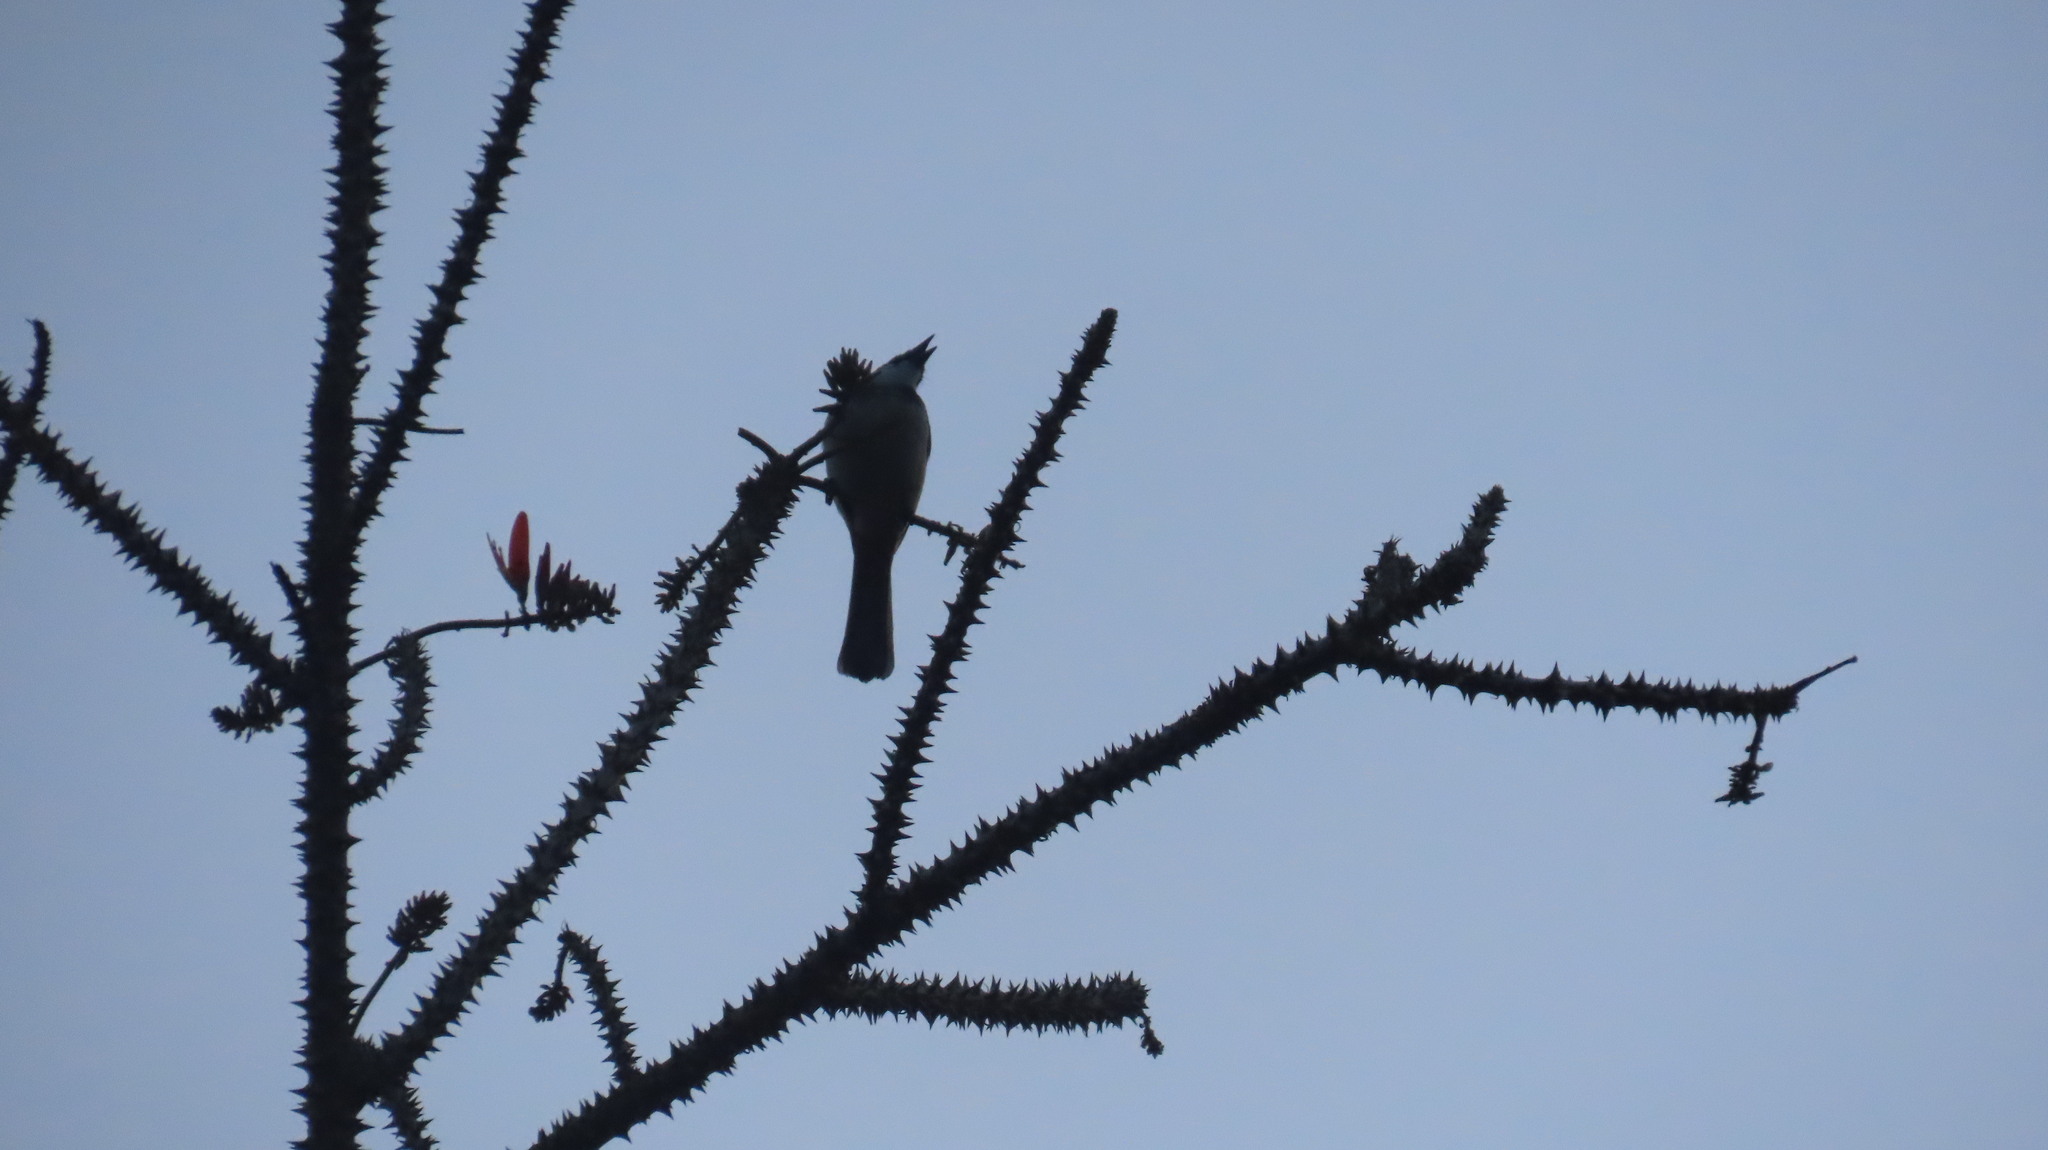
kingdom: Animalia
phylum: Chordata
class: Aves
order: Passeriformes
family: Pycnonotidae
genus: Pycnonotus
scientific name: Pycnonotus jocosus
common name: Red-whiskered bulbul
